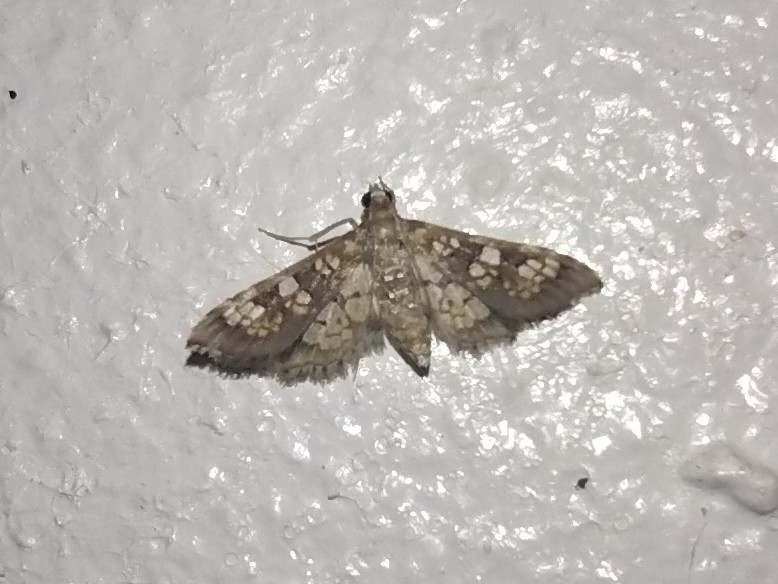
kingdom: Animalia
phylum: Arthropoda
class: Insecta
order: Lepidoptera
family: Crambidae
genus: Samea
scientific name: Samea ecclesialis
